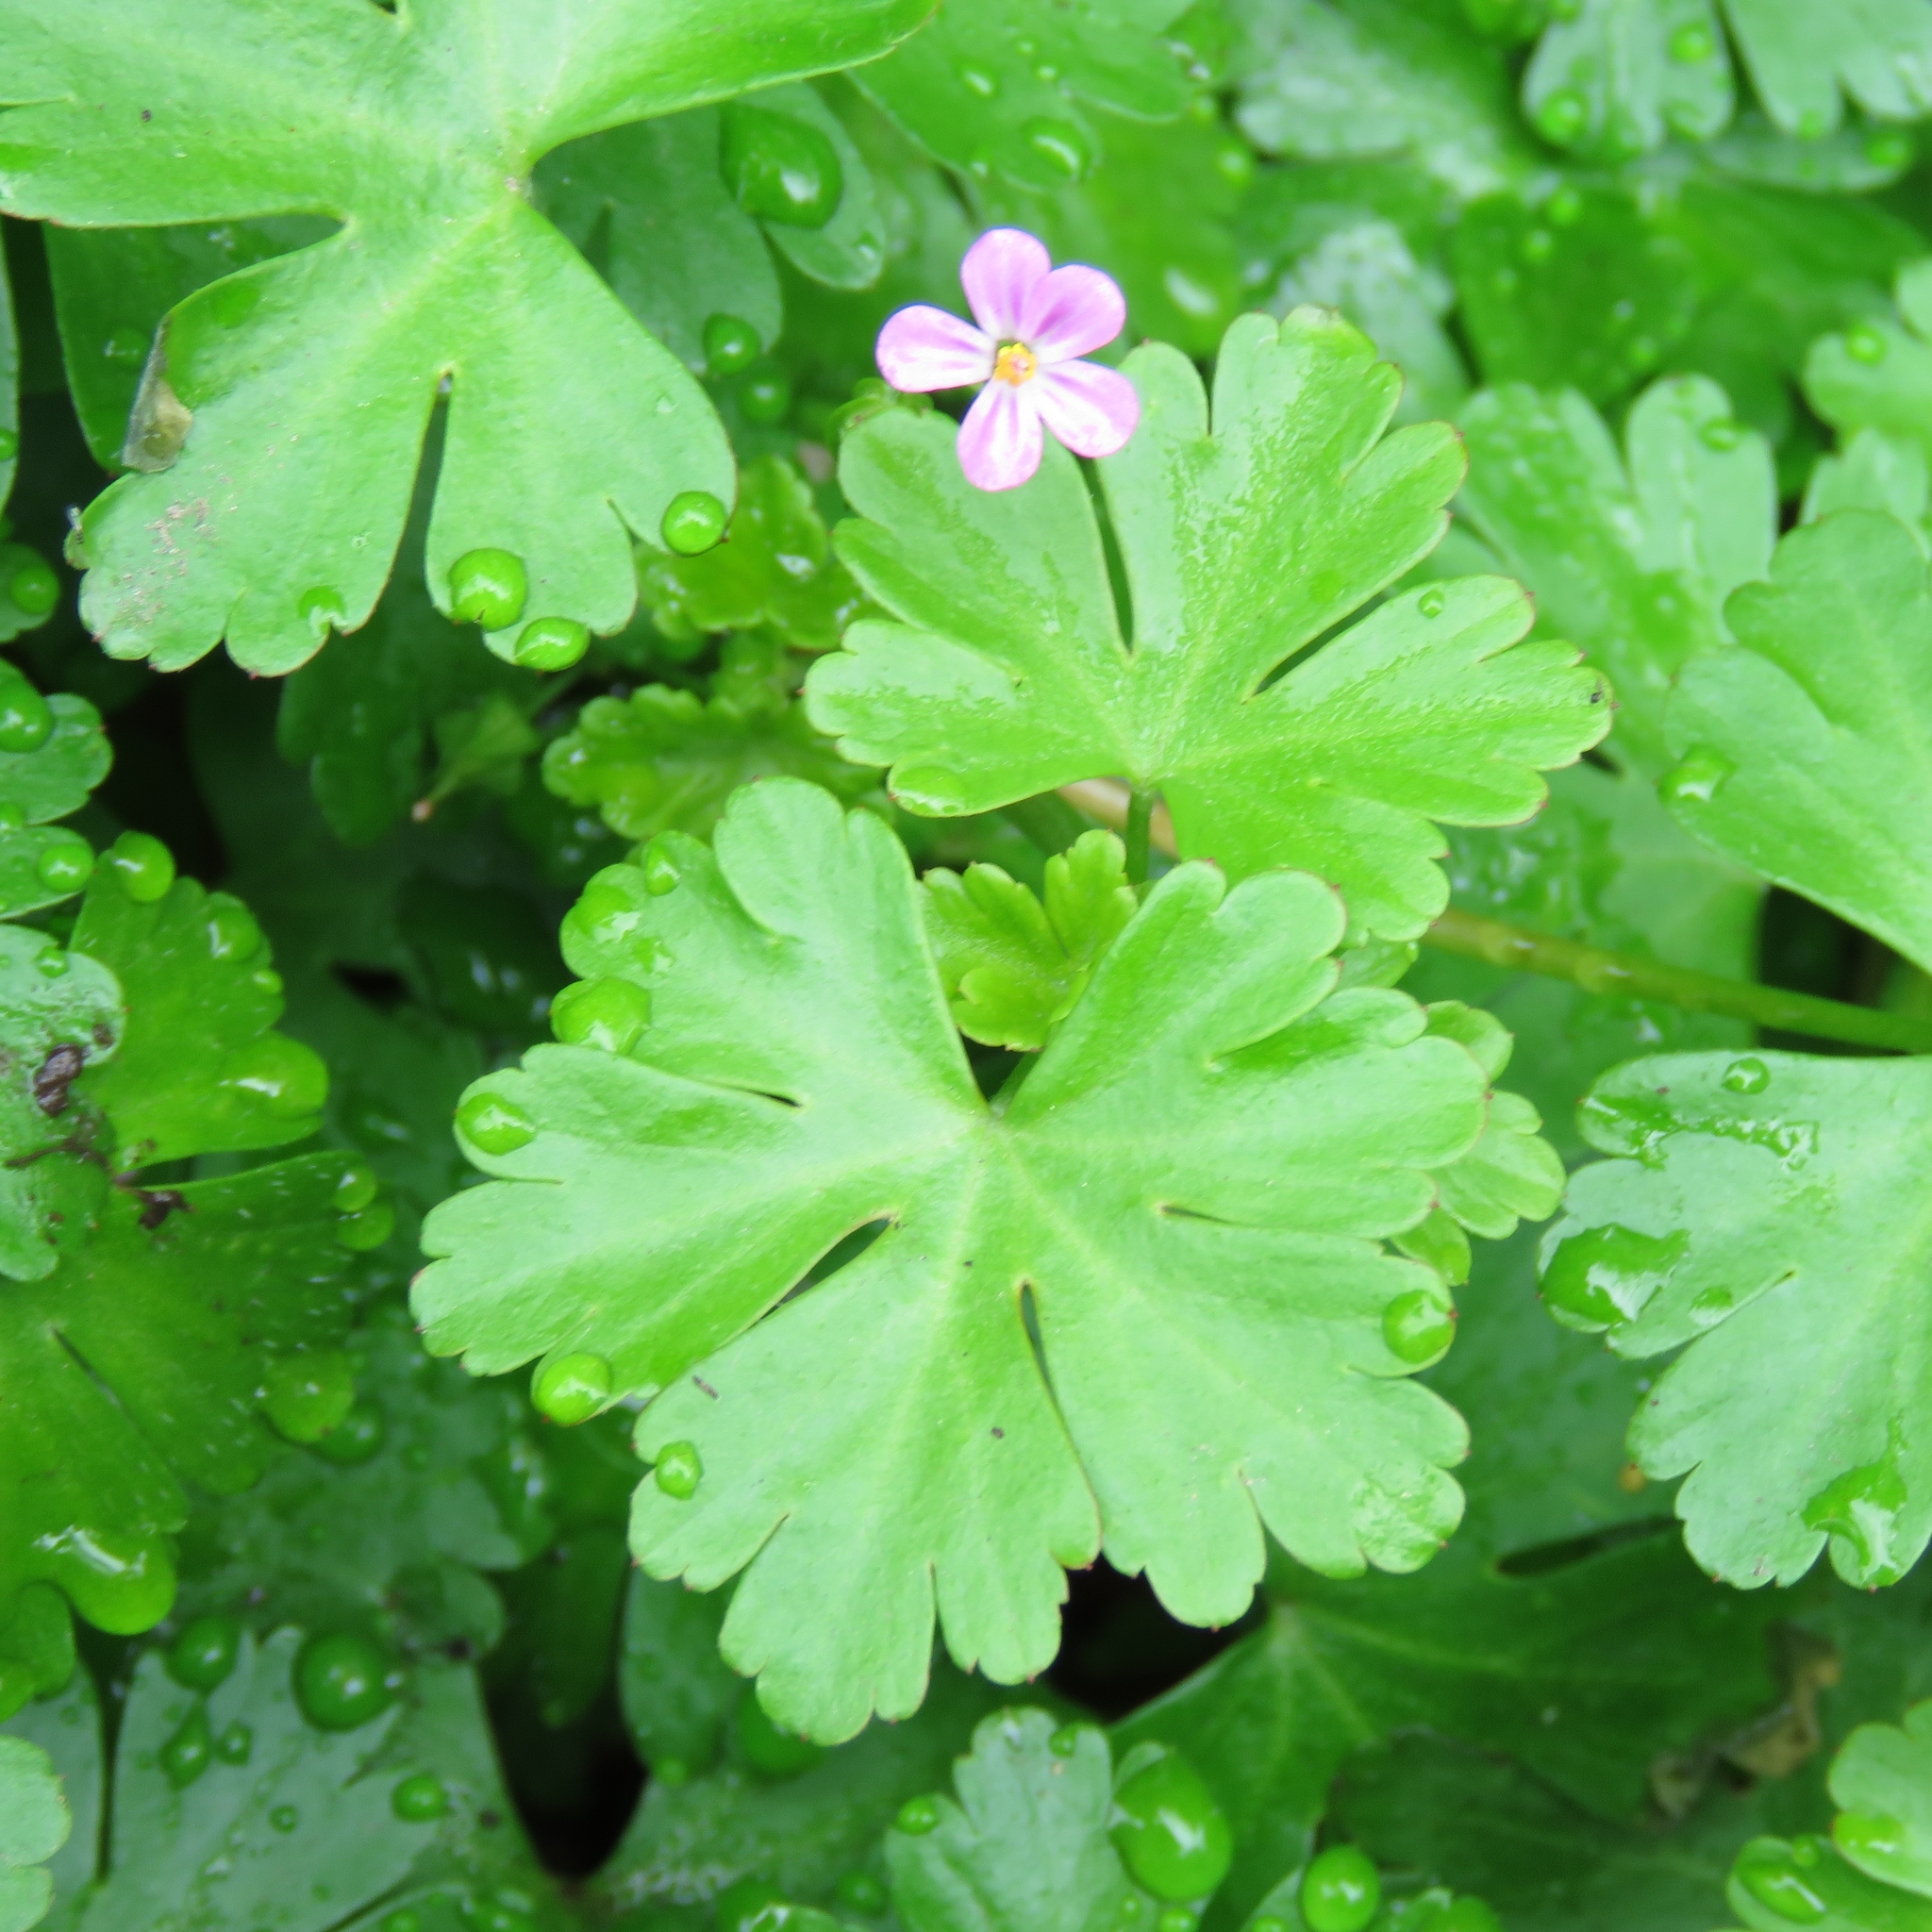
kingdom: Plantae
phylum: Tracheophyta
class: Magnoliopsida
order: Geraniales
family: Geraniaceae
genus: Geranium
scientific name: Geranium lucidum
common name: Shining crane's-bill
